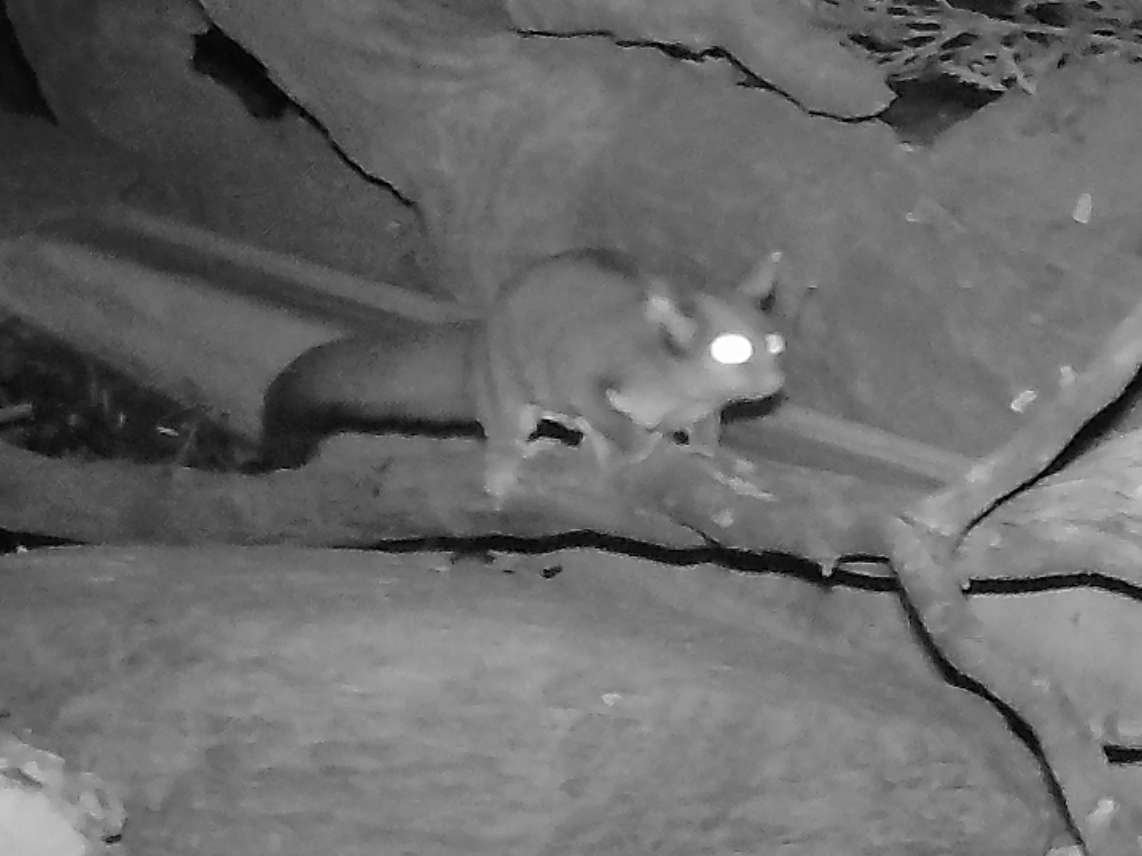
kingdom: Animalia
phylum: Chordata
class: Mammalia
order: Diprotodontia
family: Petauridae
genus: Petaurus
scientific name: Petaurus breviceps
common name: Sugar glider
